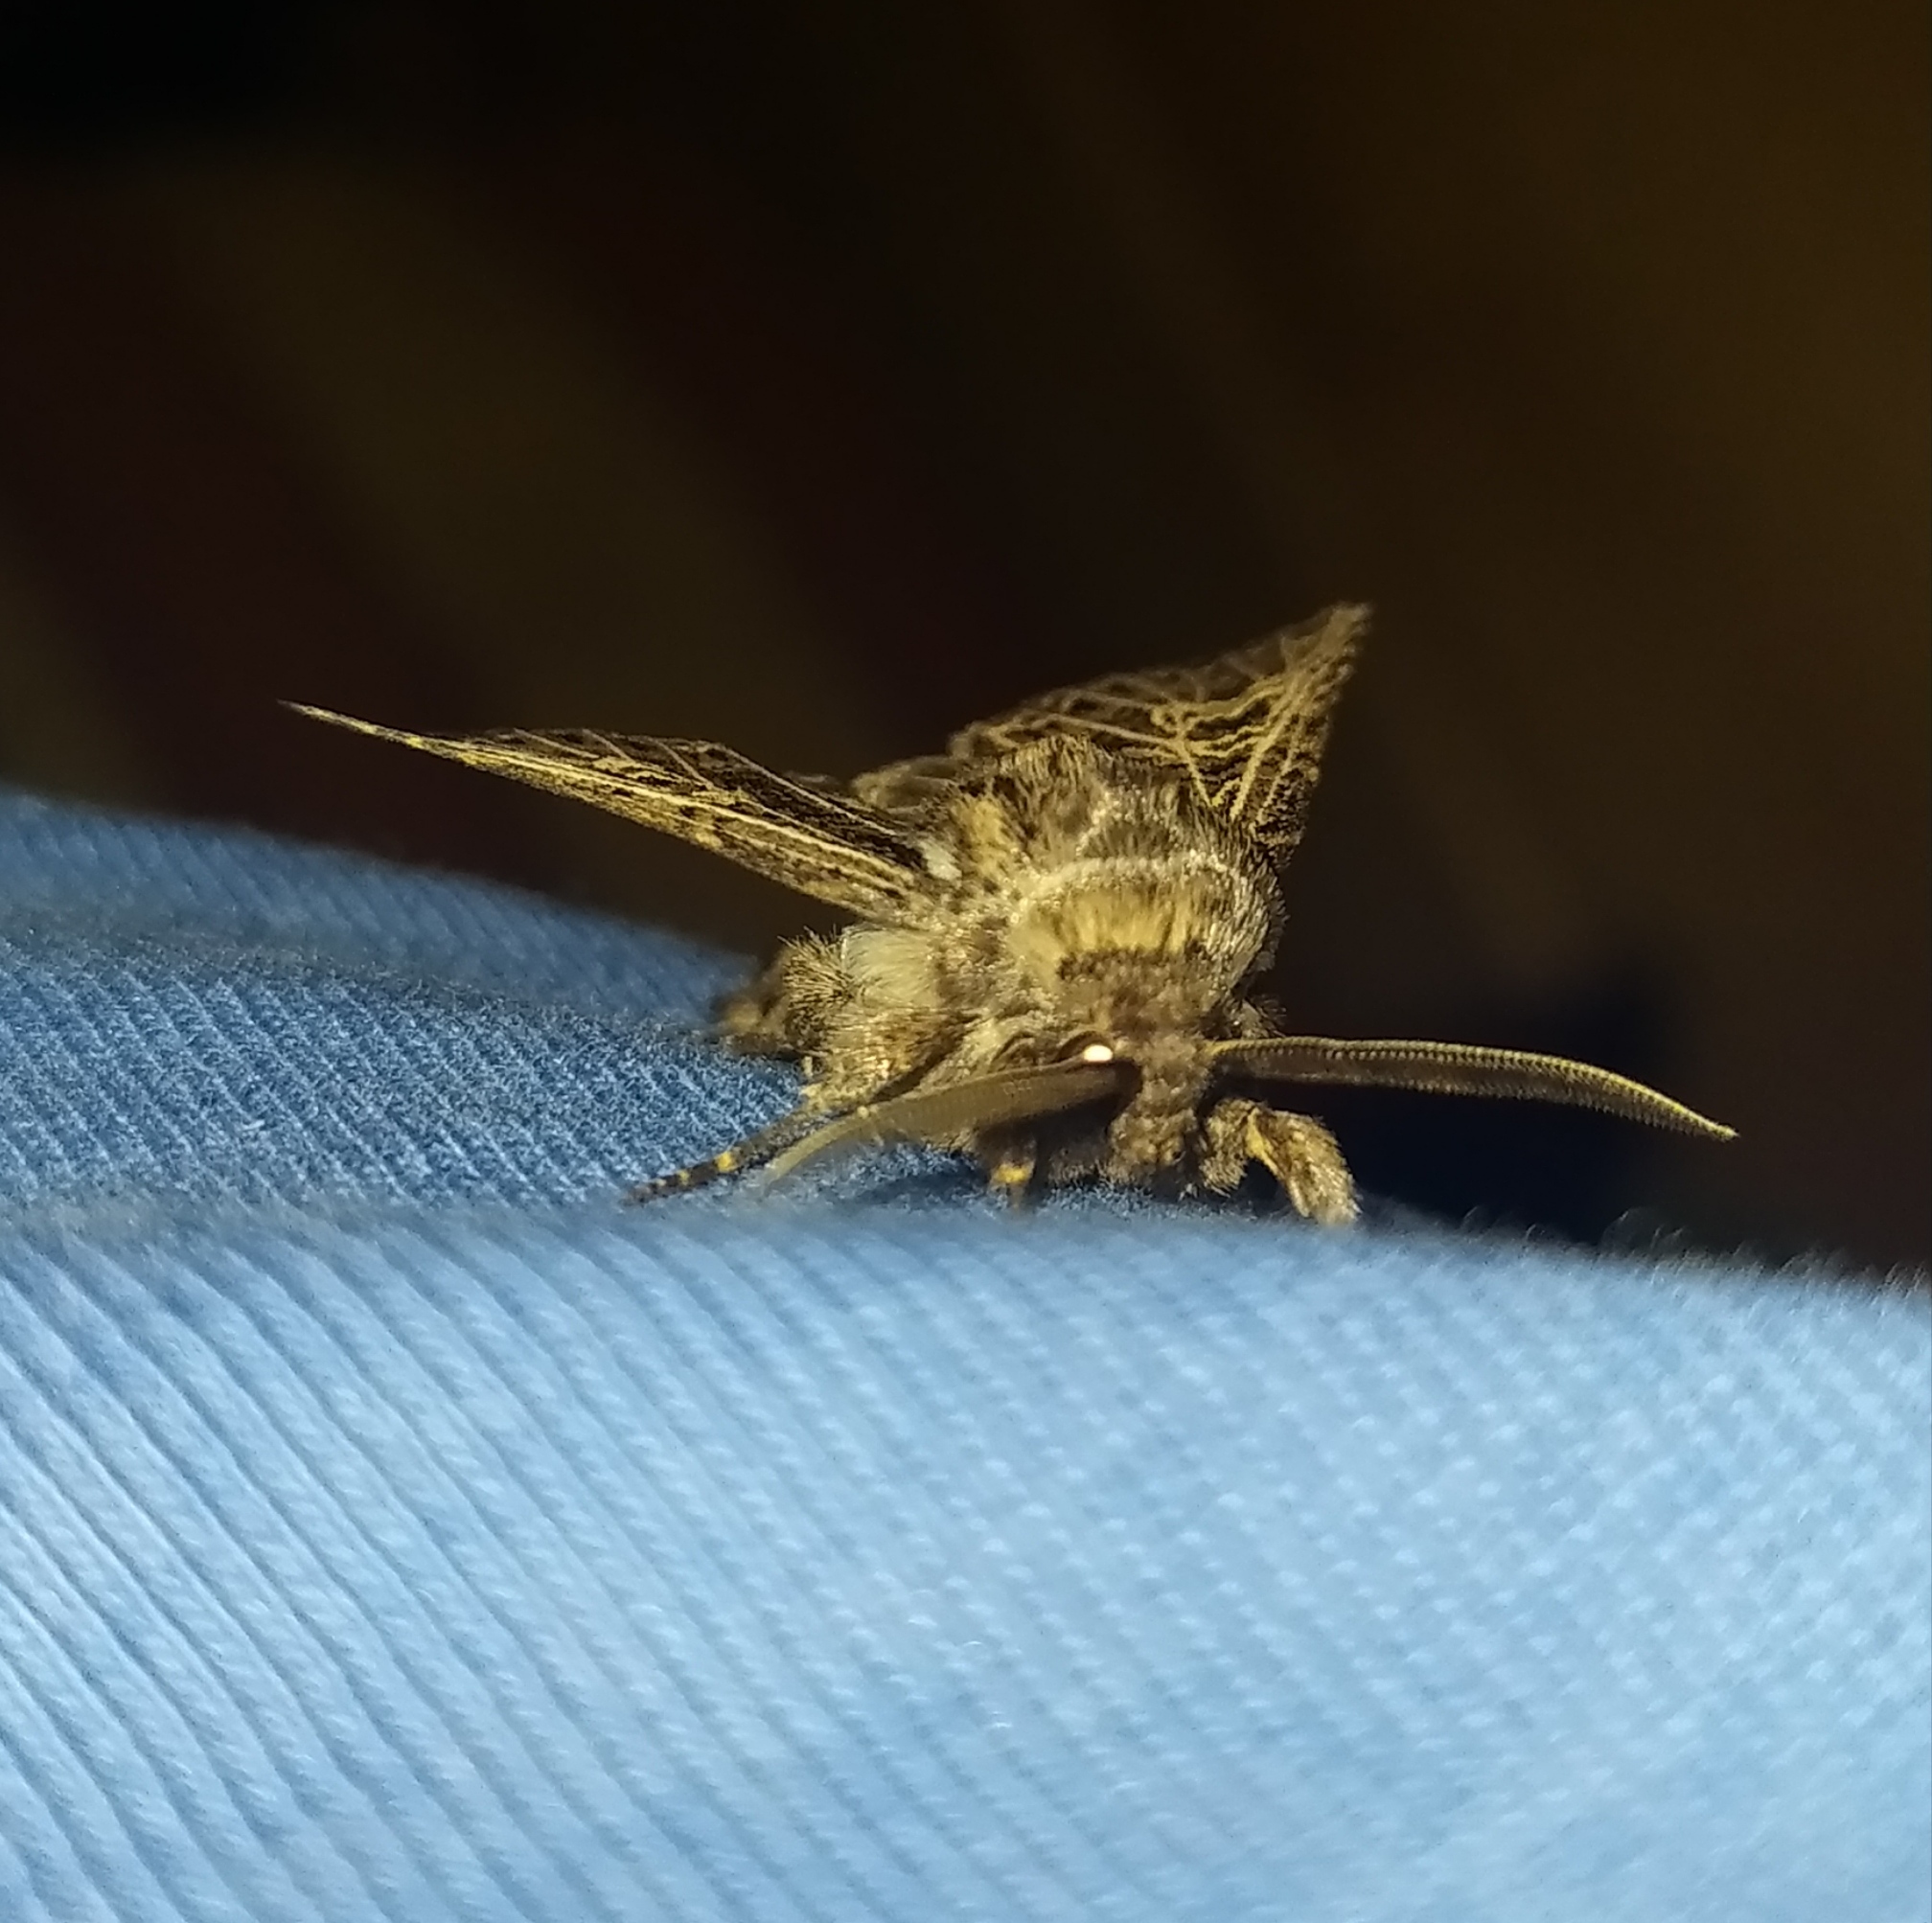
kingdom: Animalia
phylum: Arthropoda
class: Insecta
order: Lepidoptera
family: Noctuidae
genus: Tholera
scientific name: Tholera decimalis
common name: Feathered gothic
